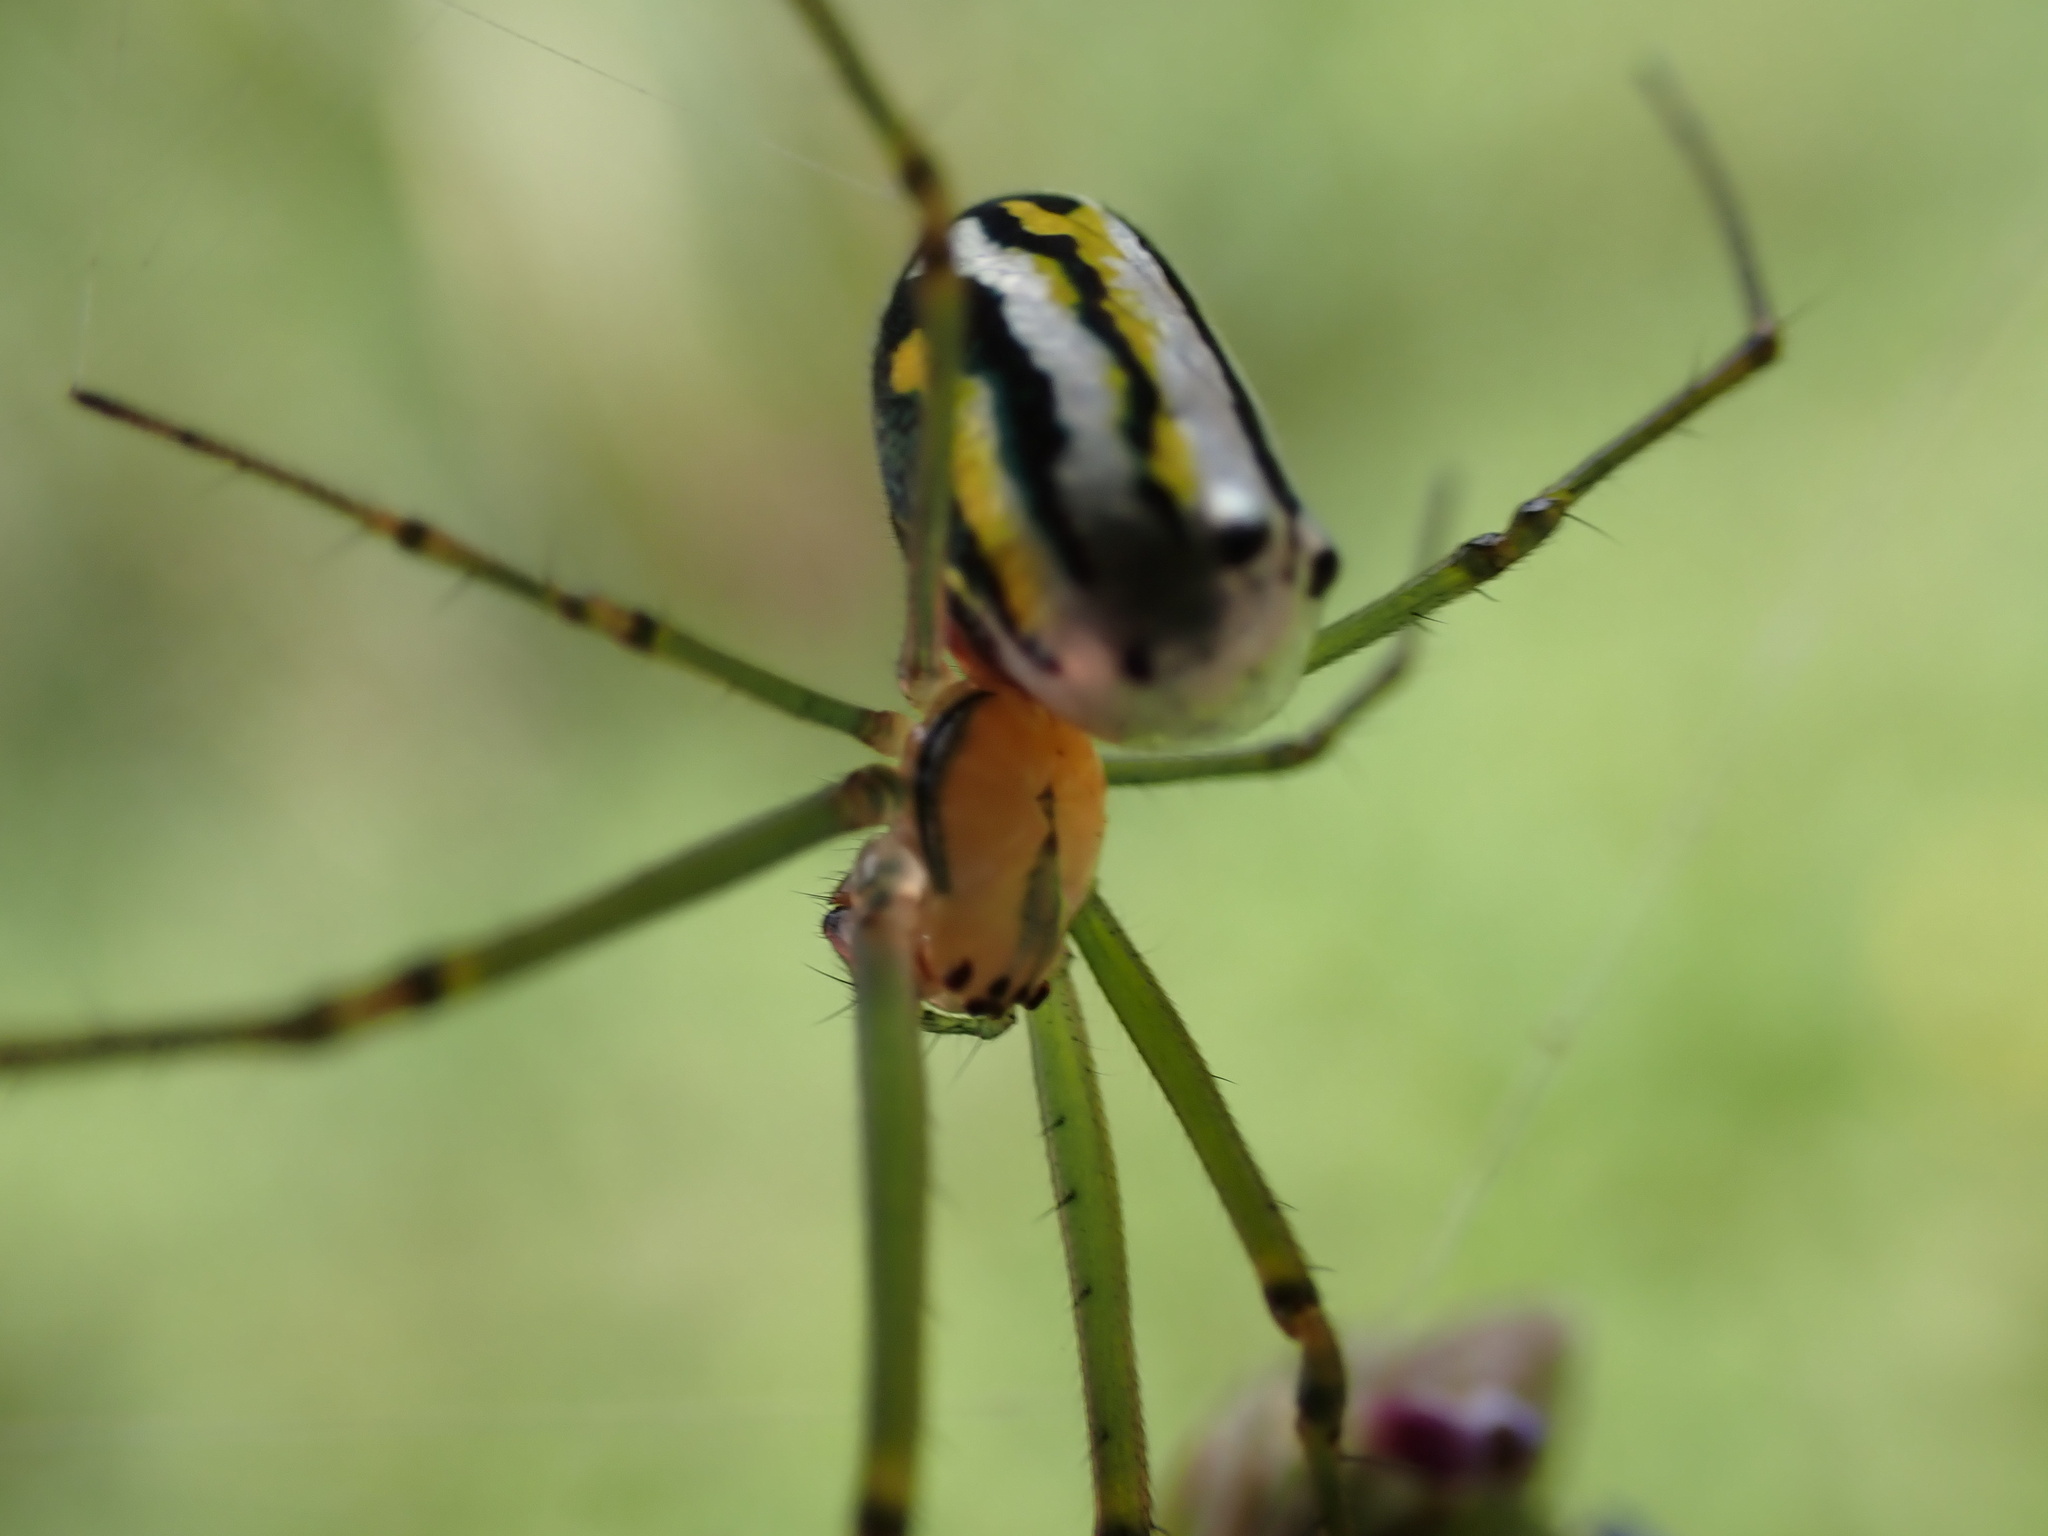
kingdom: Animalia
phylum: Arthropoda
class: Arachnida
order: Araneae
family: Tetragnathidae
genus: Leucauge
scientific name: Leucauge regnyi
